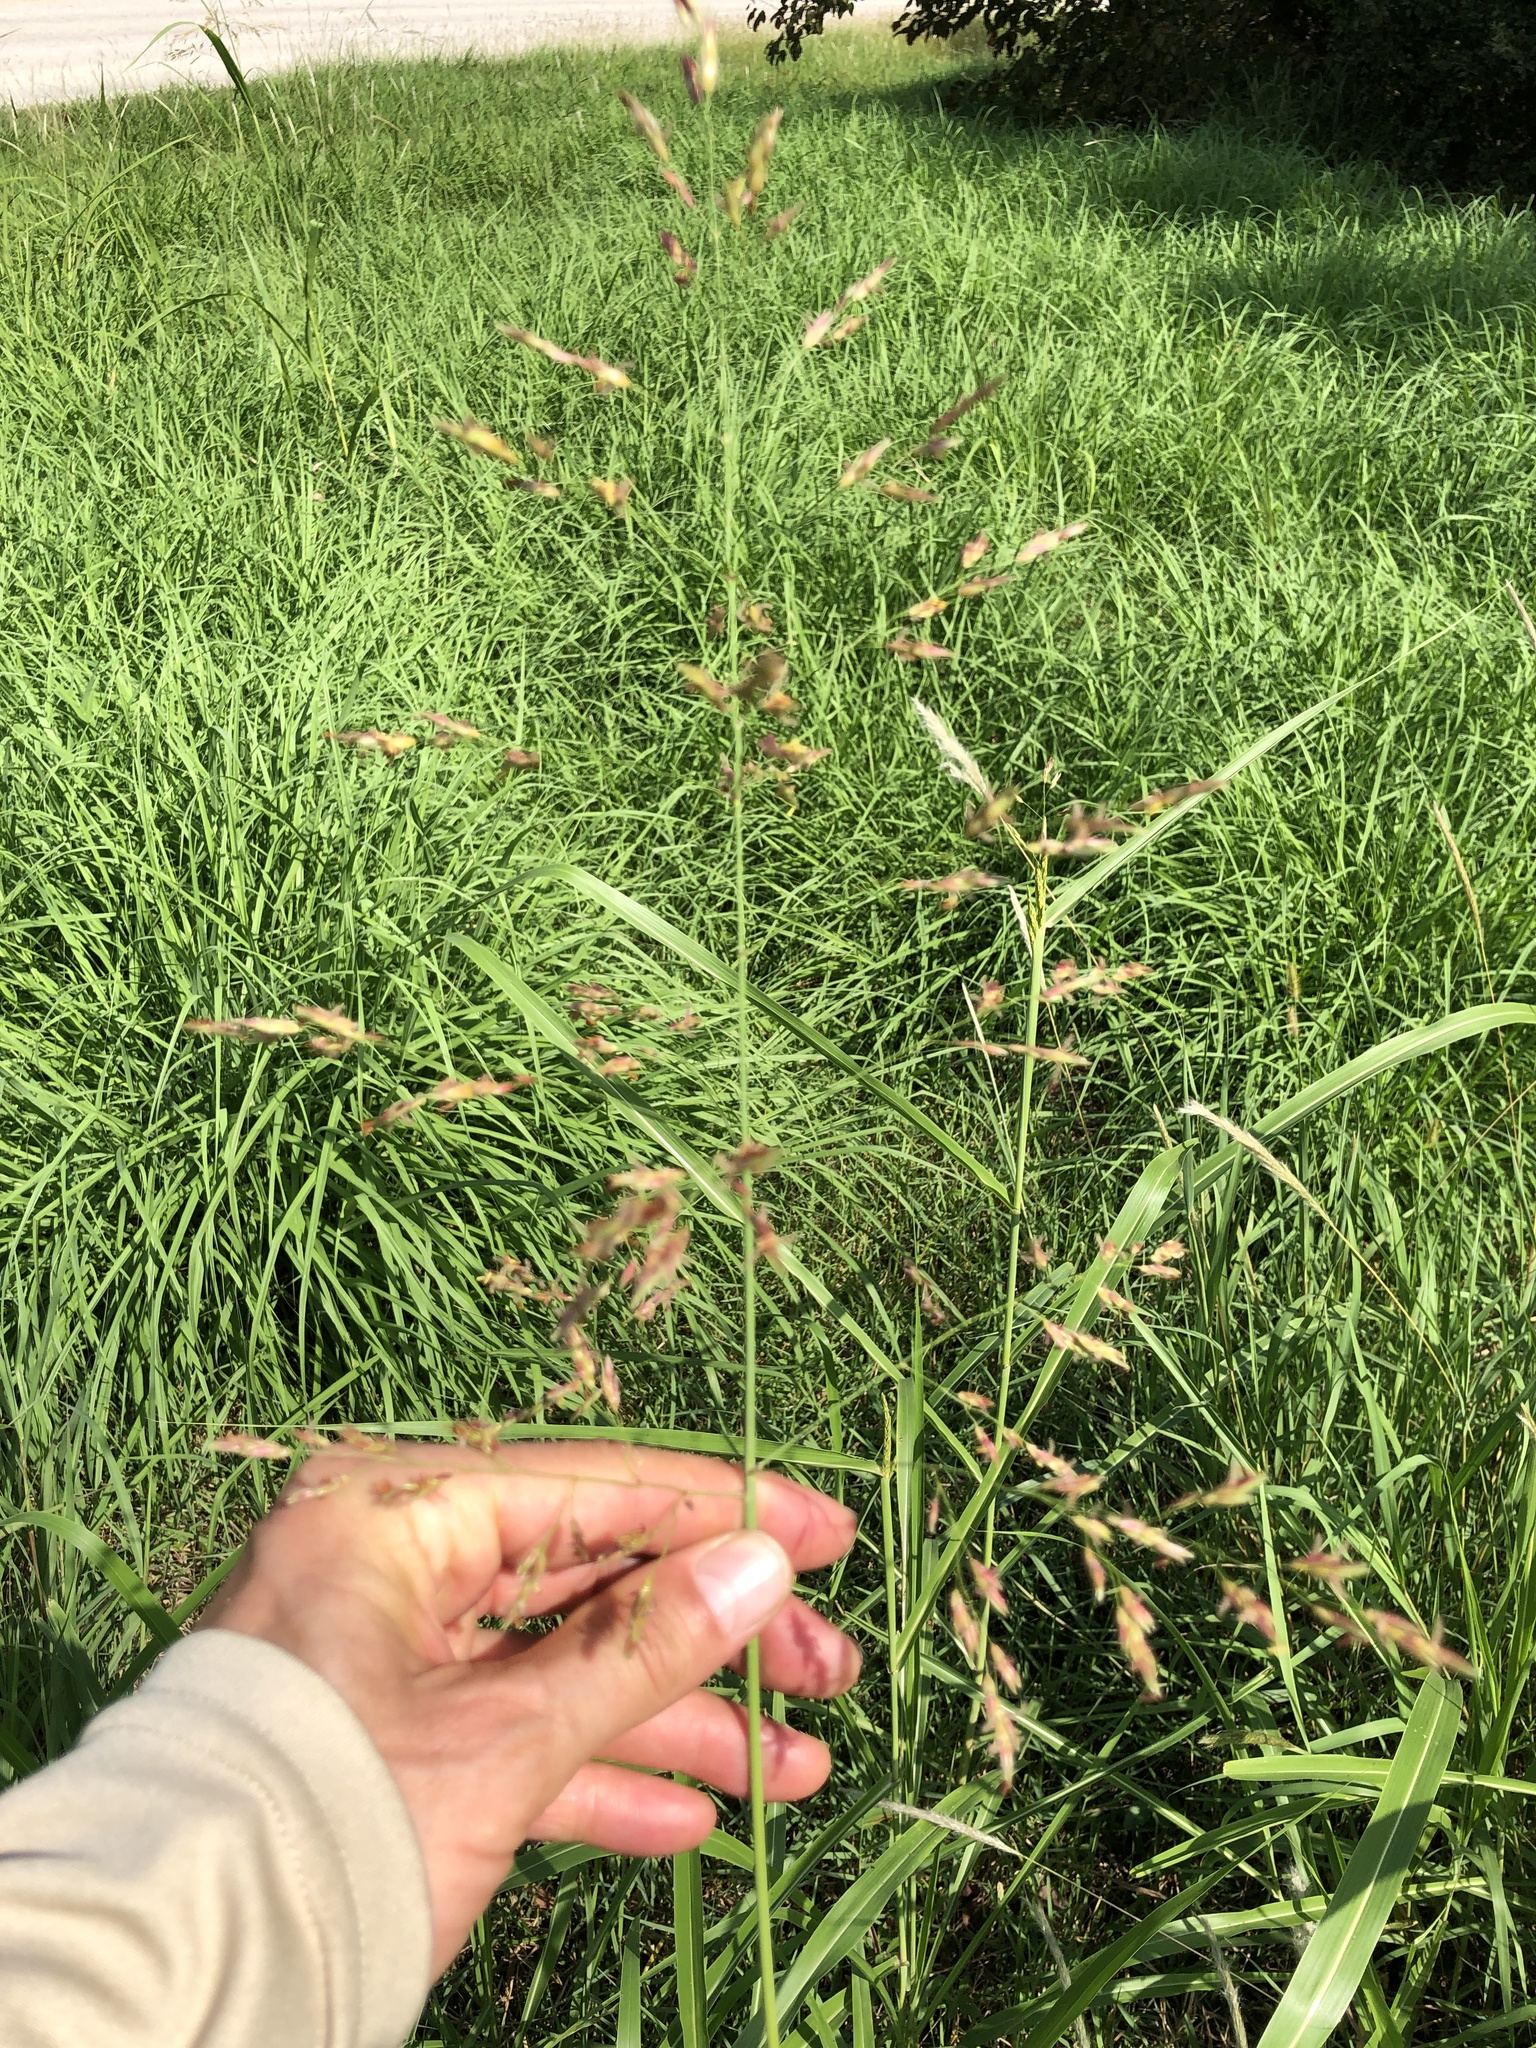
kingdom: Plantae
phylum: Tracheophyta
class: Liliopsida
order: Poales
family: Poaceae
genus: Sorghum
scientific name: Sorghum halepense
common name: Johnson-grass
